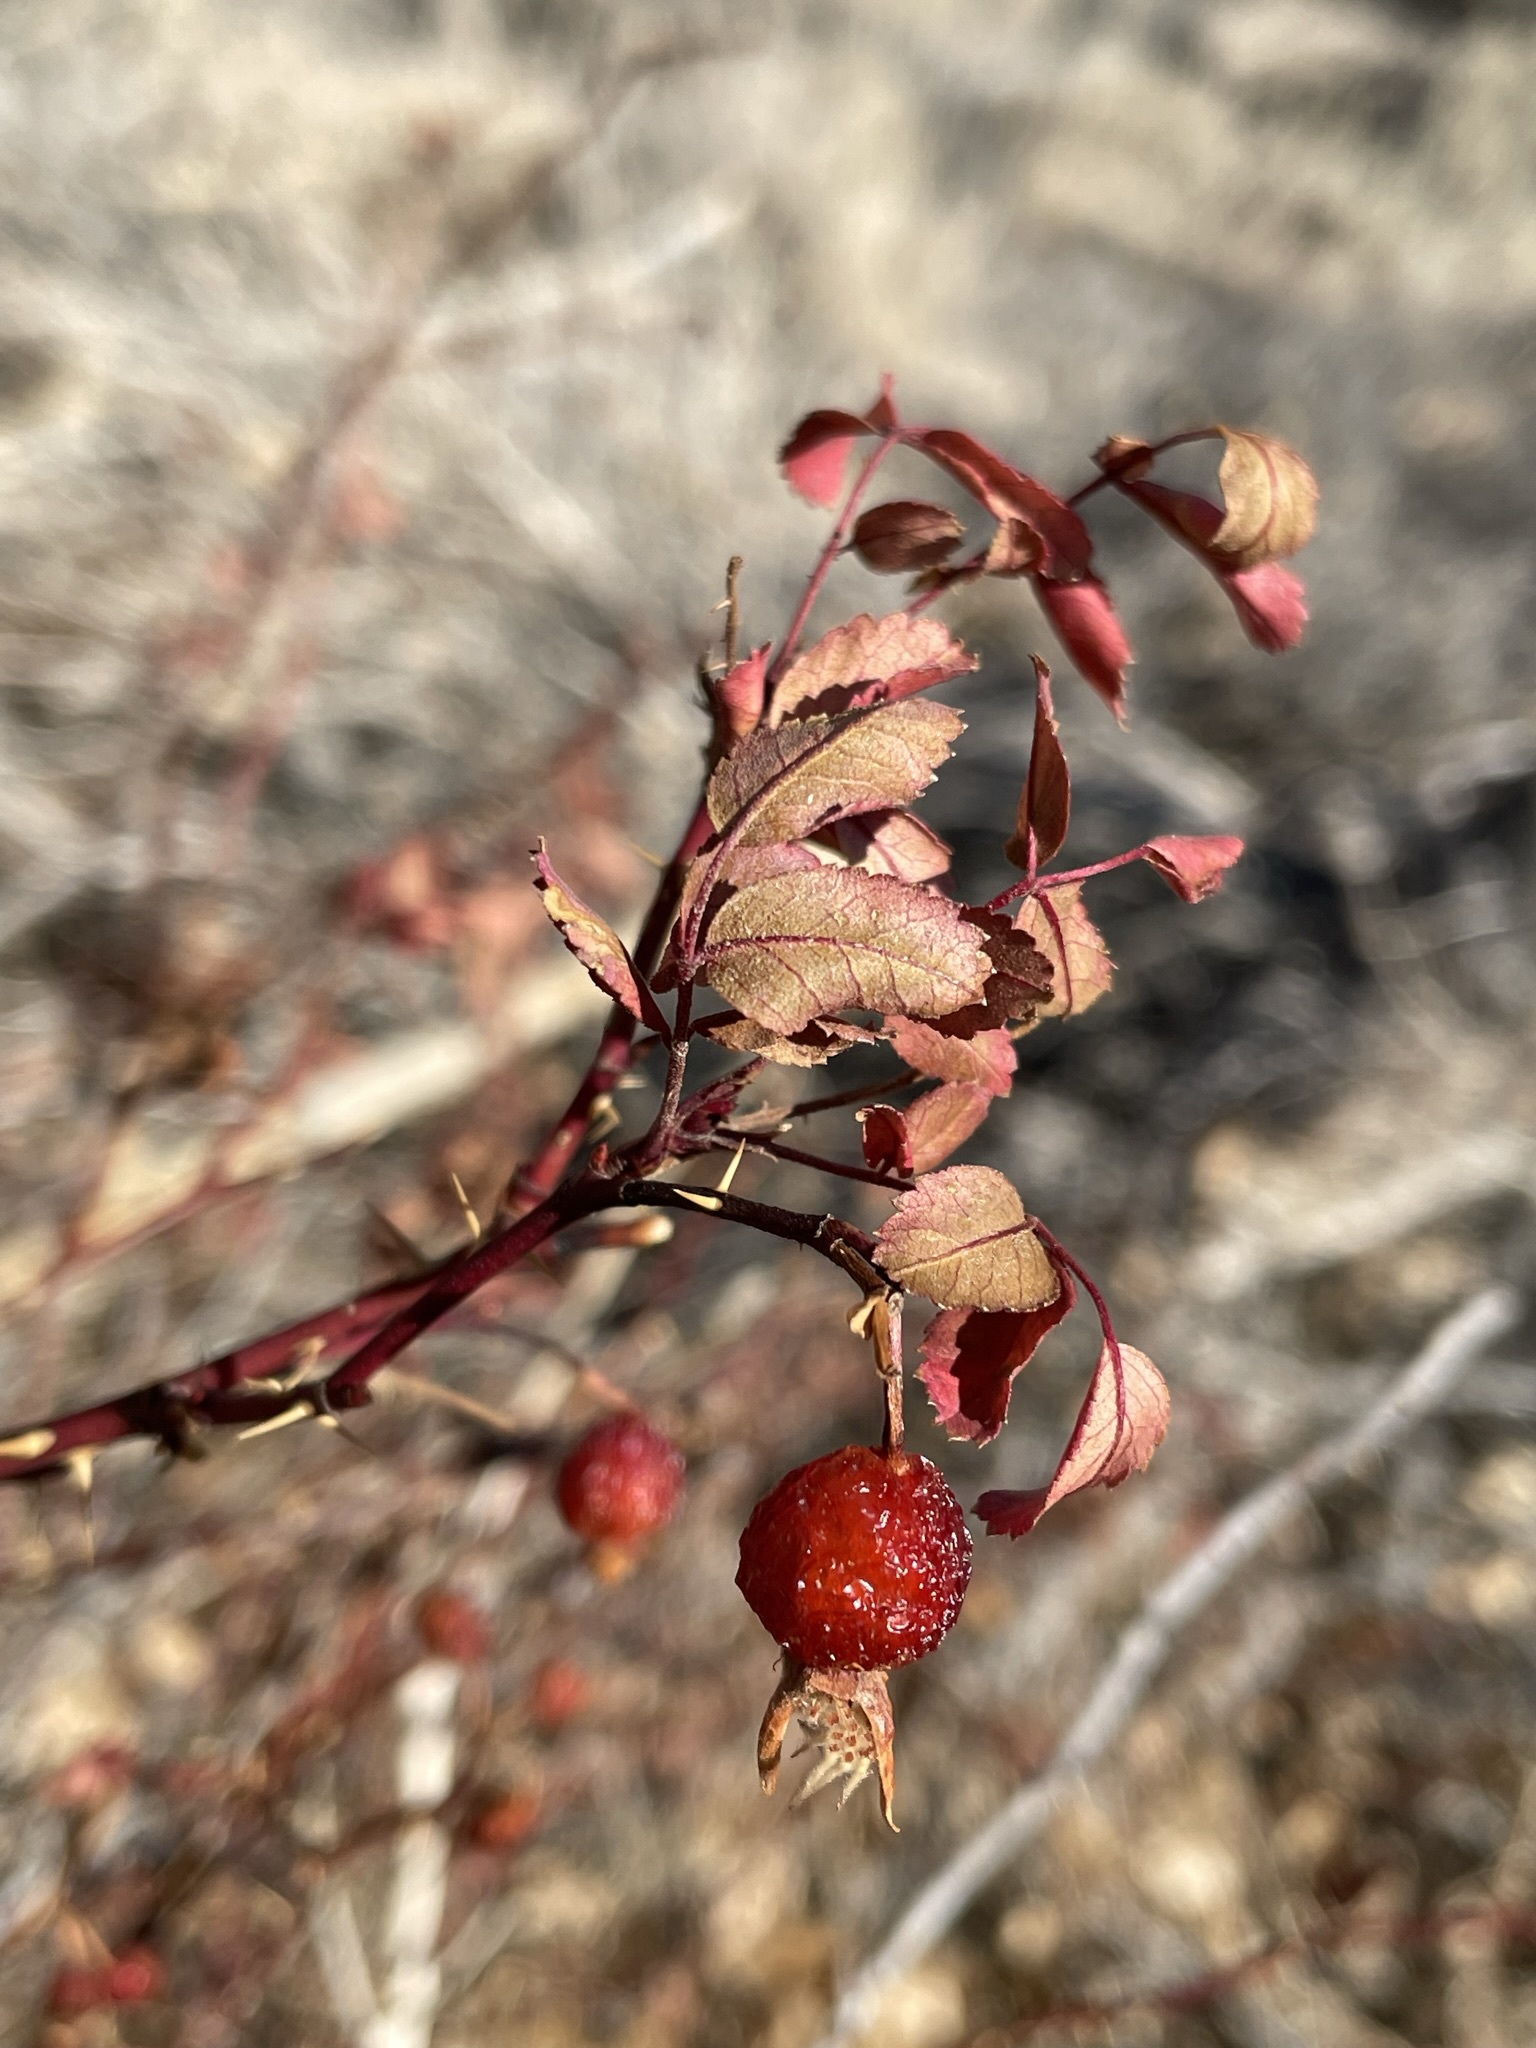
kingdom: Plantae
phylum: Tracheophyta
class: Magnoliopsida
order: Rosales
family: Rosaceae
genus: Rosa
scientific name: Rosa woodsii
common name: Woods's rose
